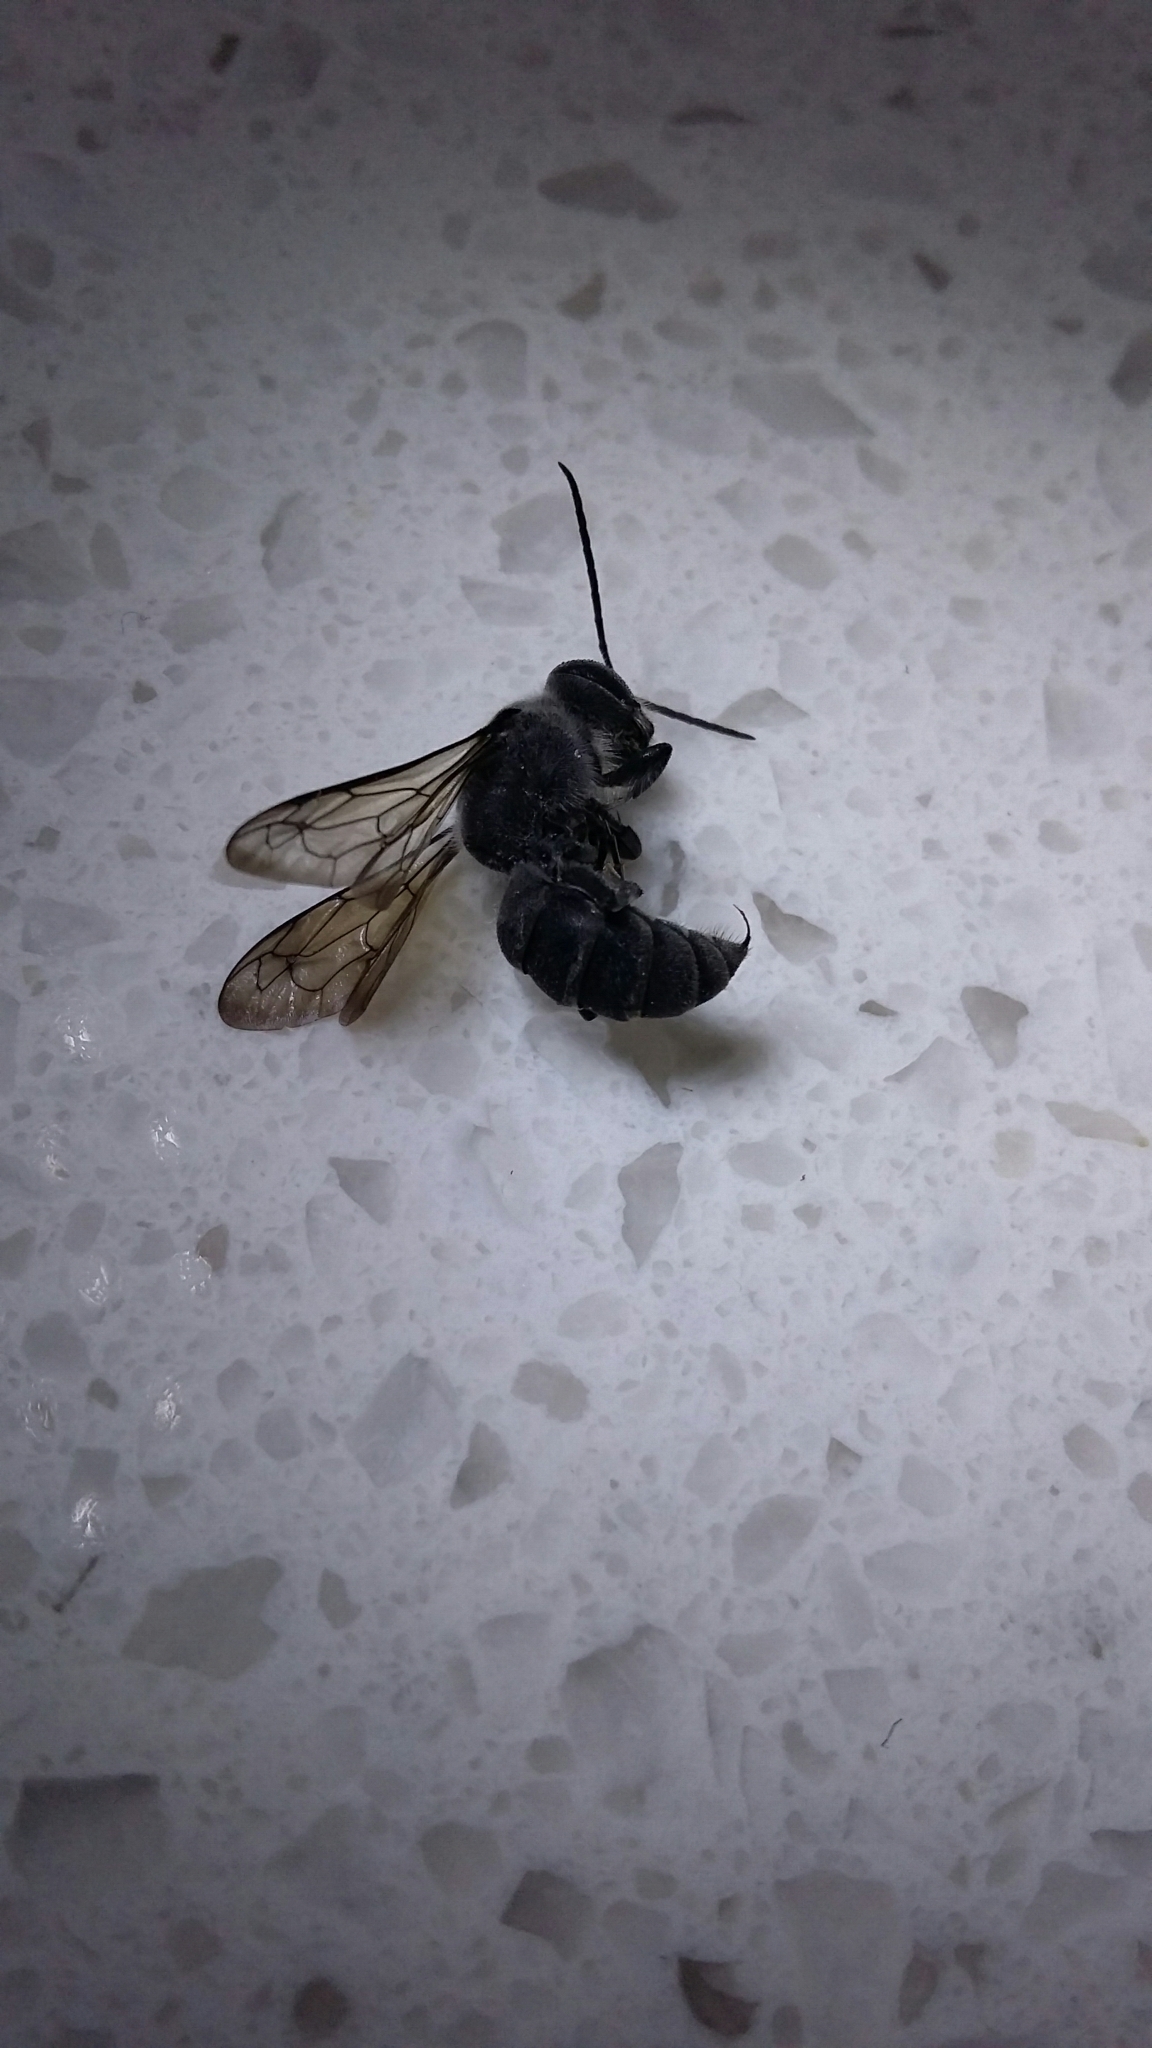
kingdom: Animalia
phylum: Arthropoda
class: Insecta
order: Hymenoptera
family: Crabronidae
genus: Pison
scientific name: Pison spinolae
